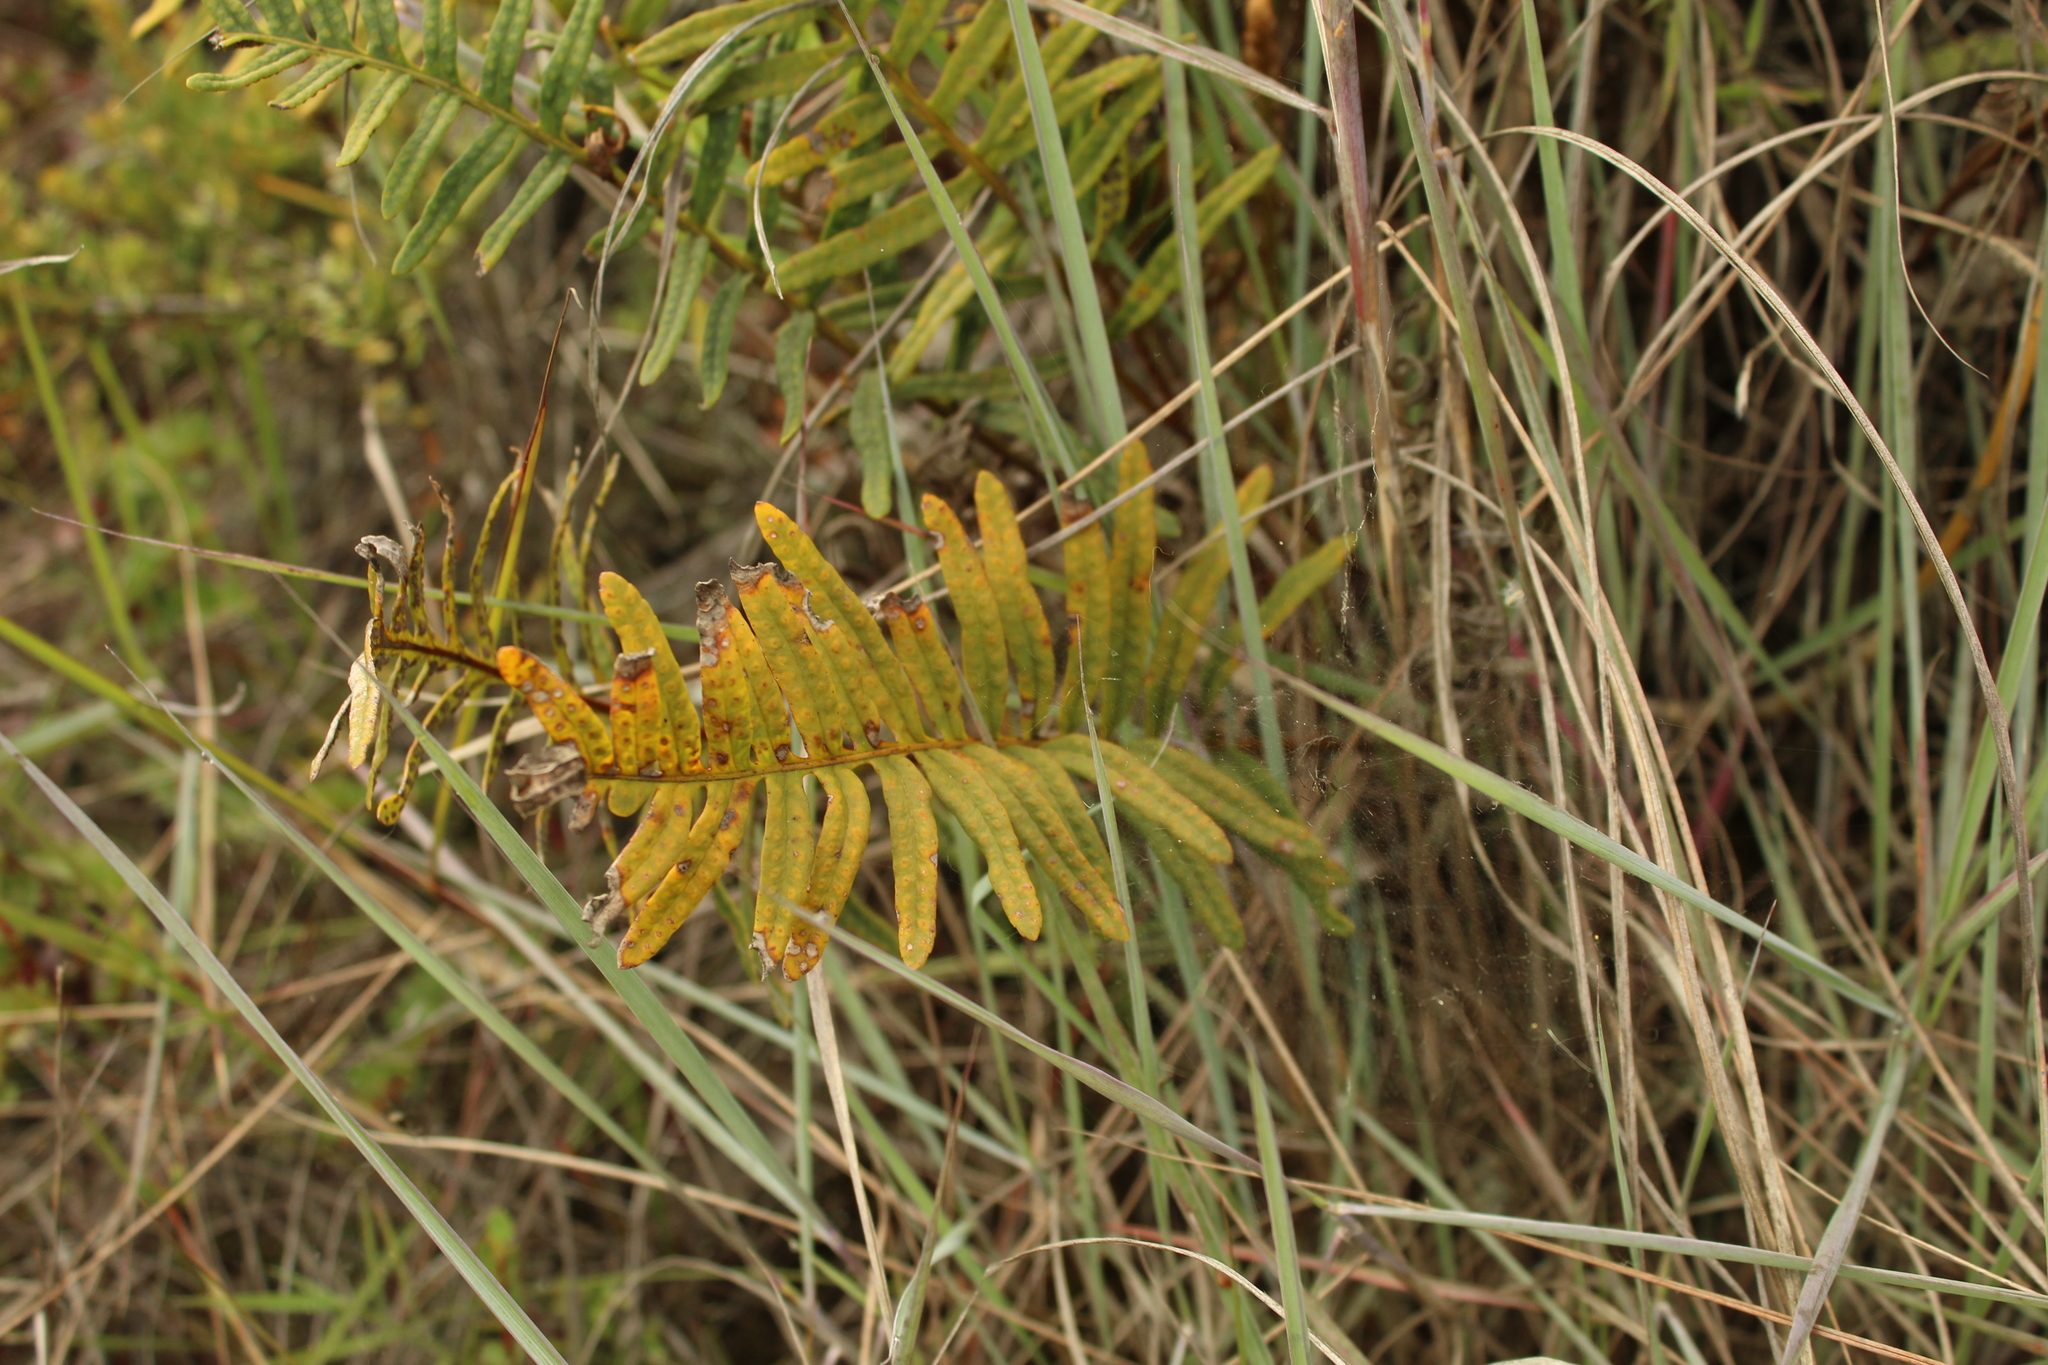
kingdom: Plantae
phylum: Tracheophyta
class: Polypodiopsida
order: Polypodiales
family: Polypodiaceae
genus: Pleopeltis
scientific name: Pleopeltis orientalis
